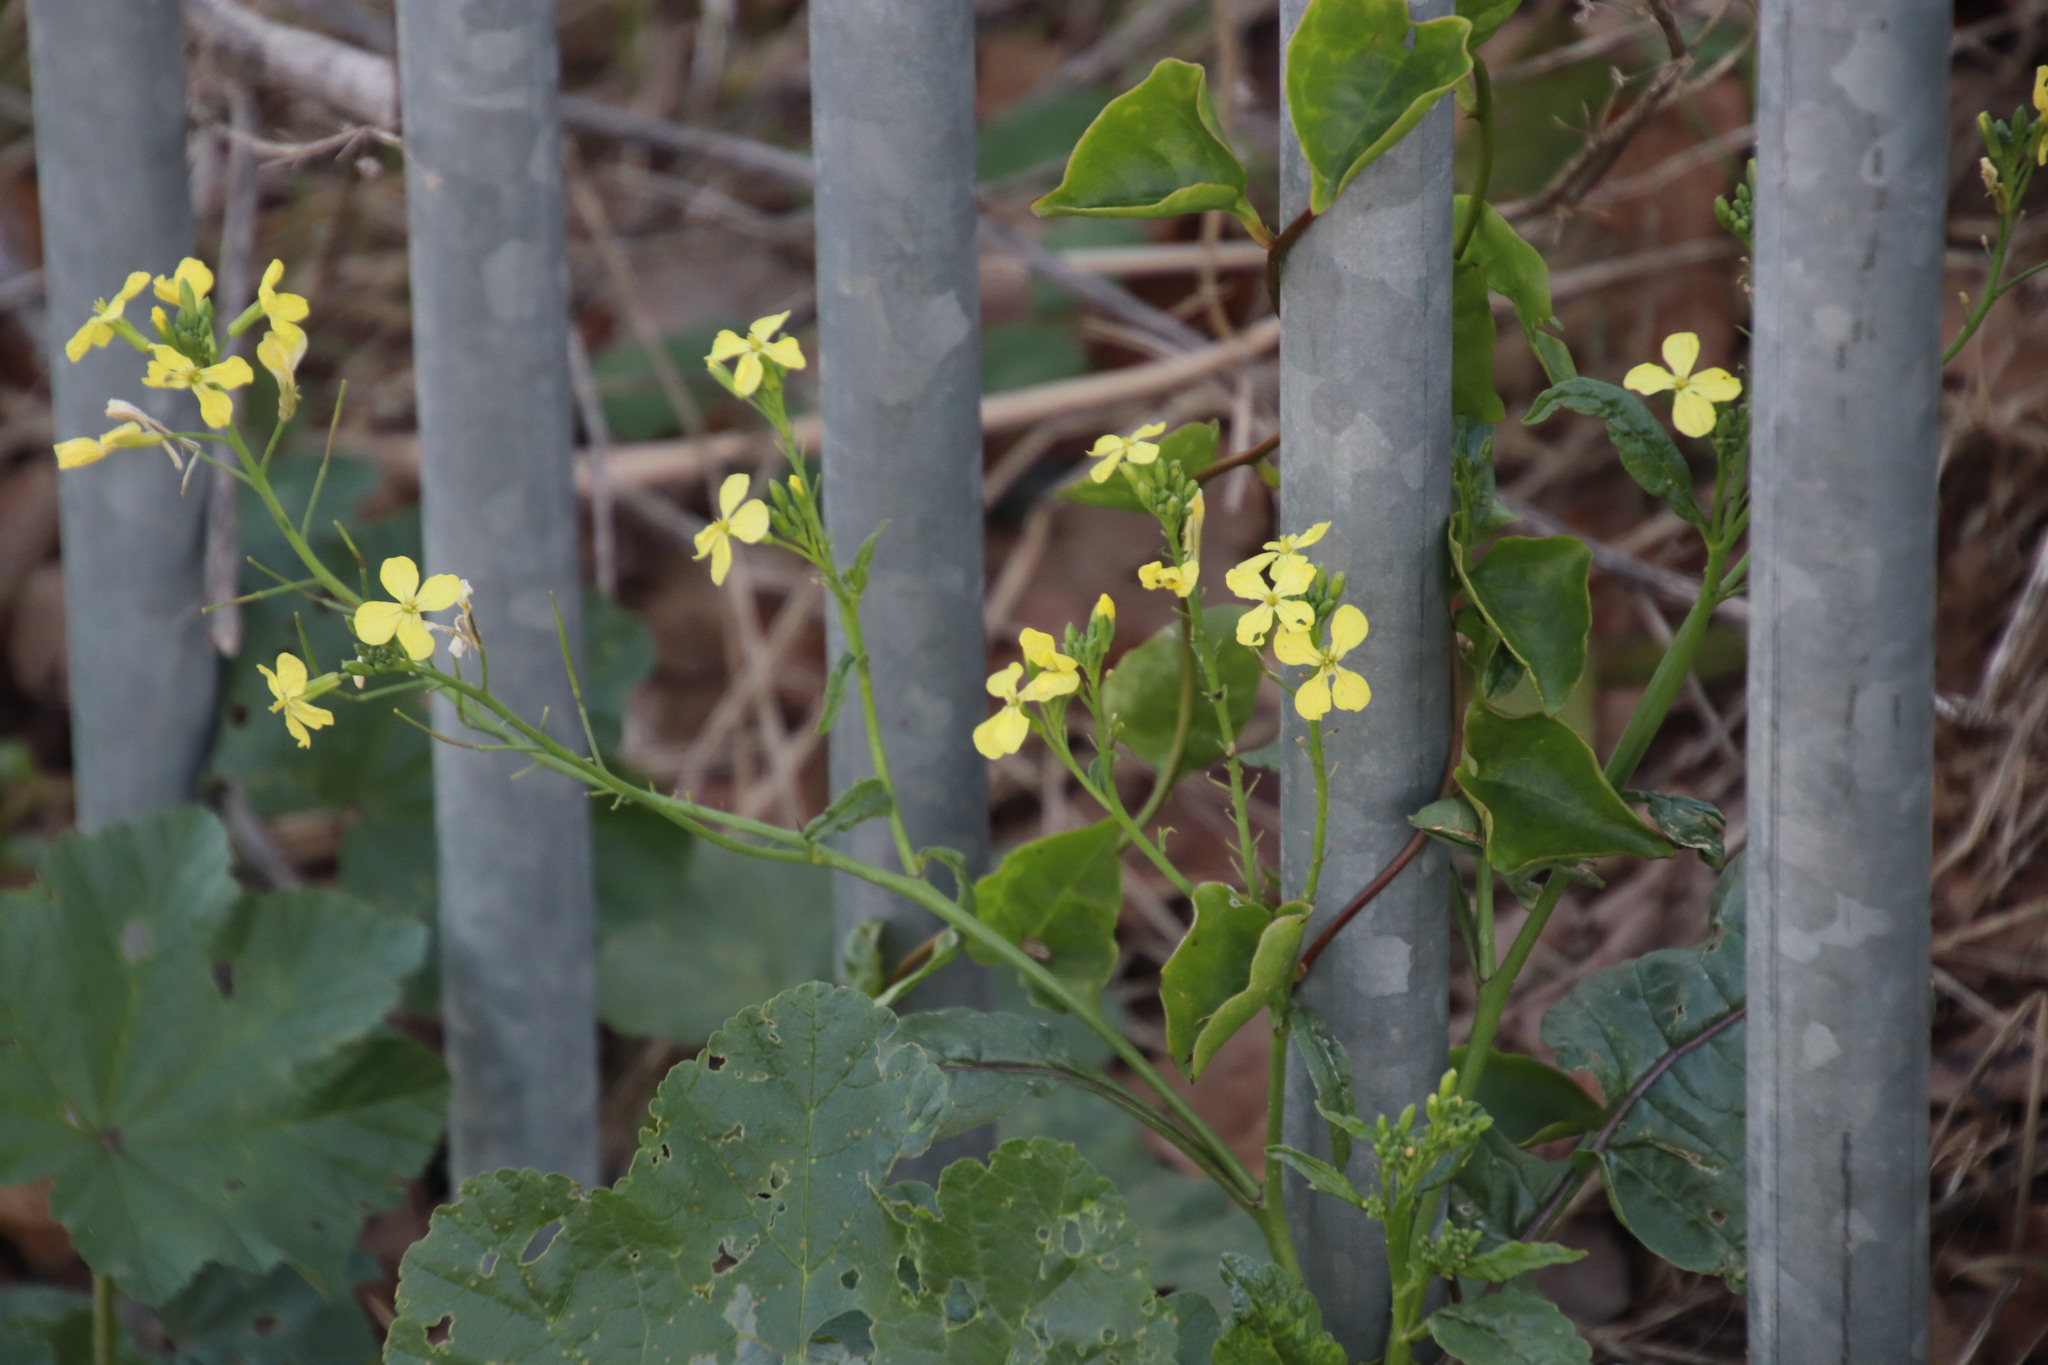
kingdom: Plantae
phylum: Tracheophyta
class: Magnoliopsida
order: Brassicales
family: Brassicaceae
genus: Raphanus
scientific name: Raphanus raphanistrum
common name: Wild radish
